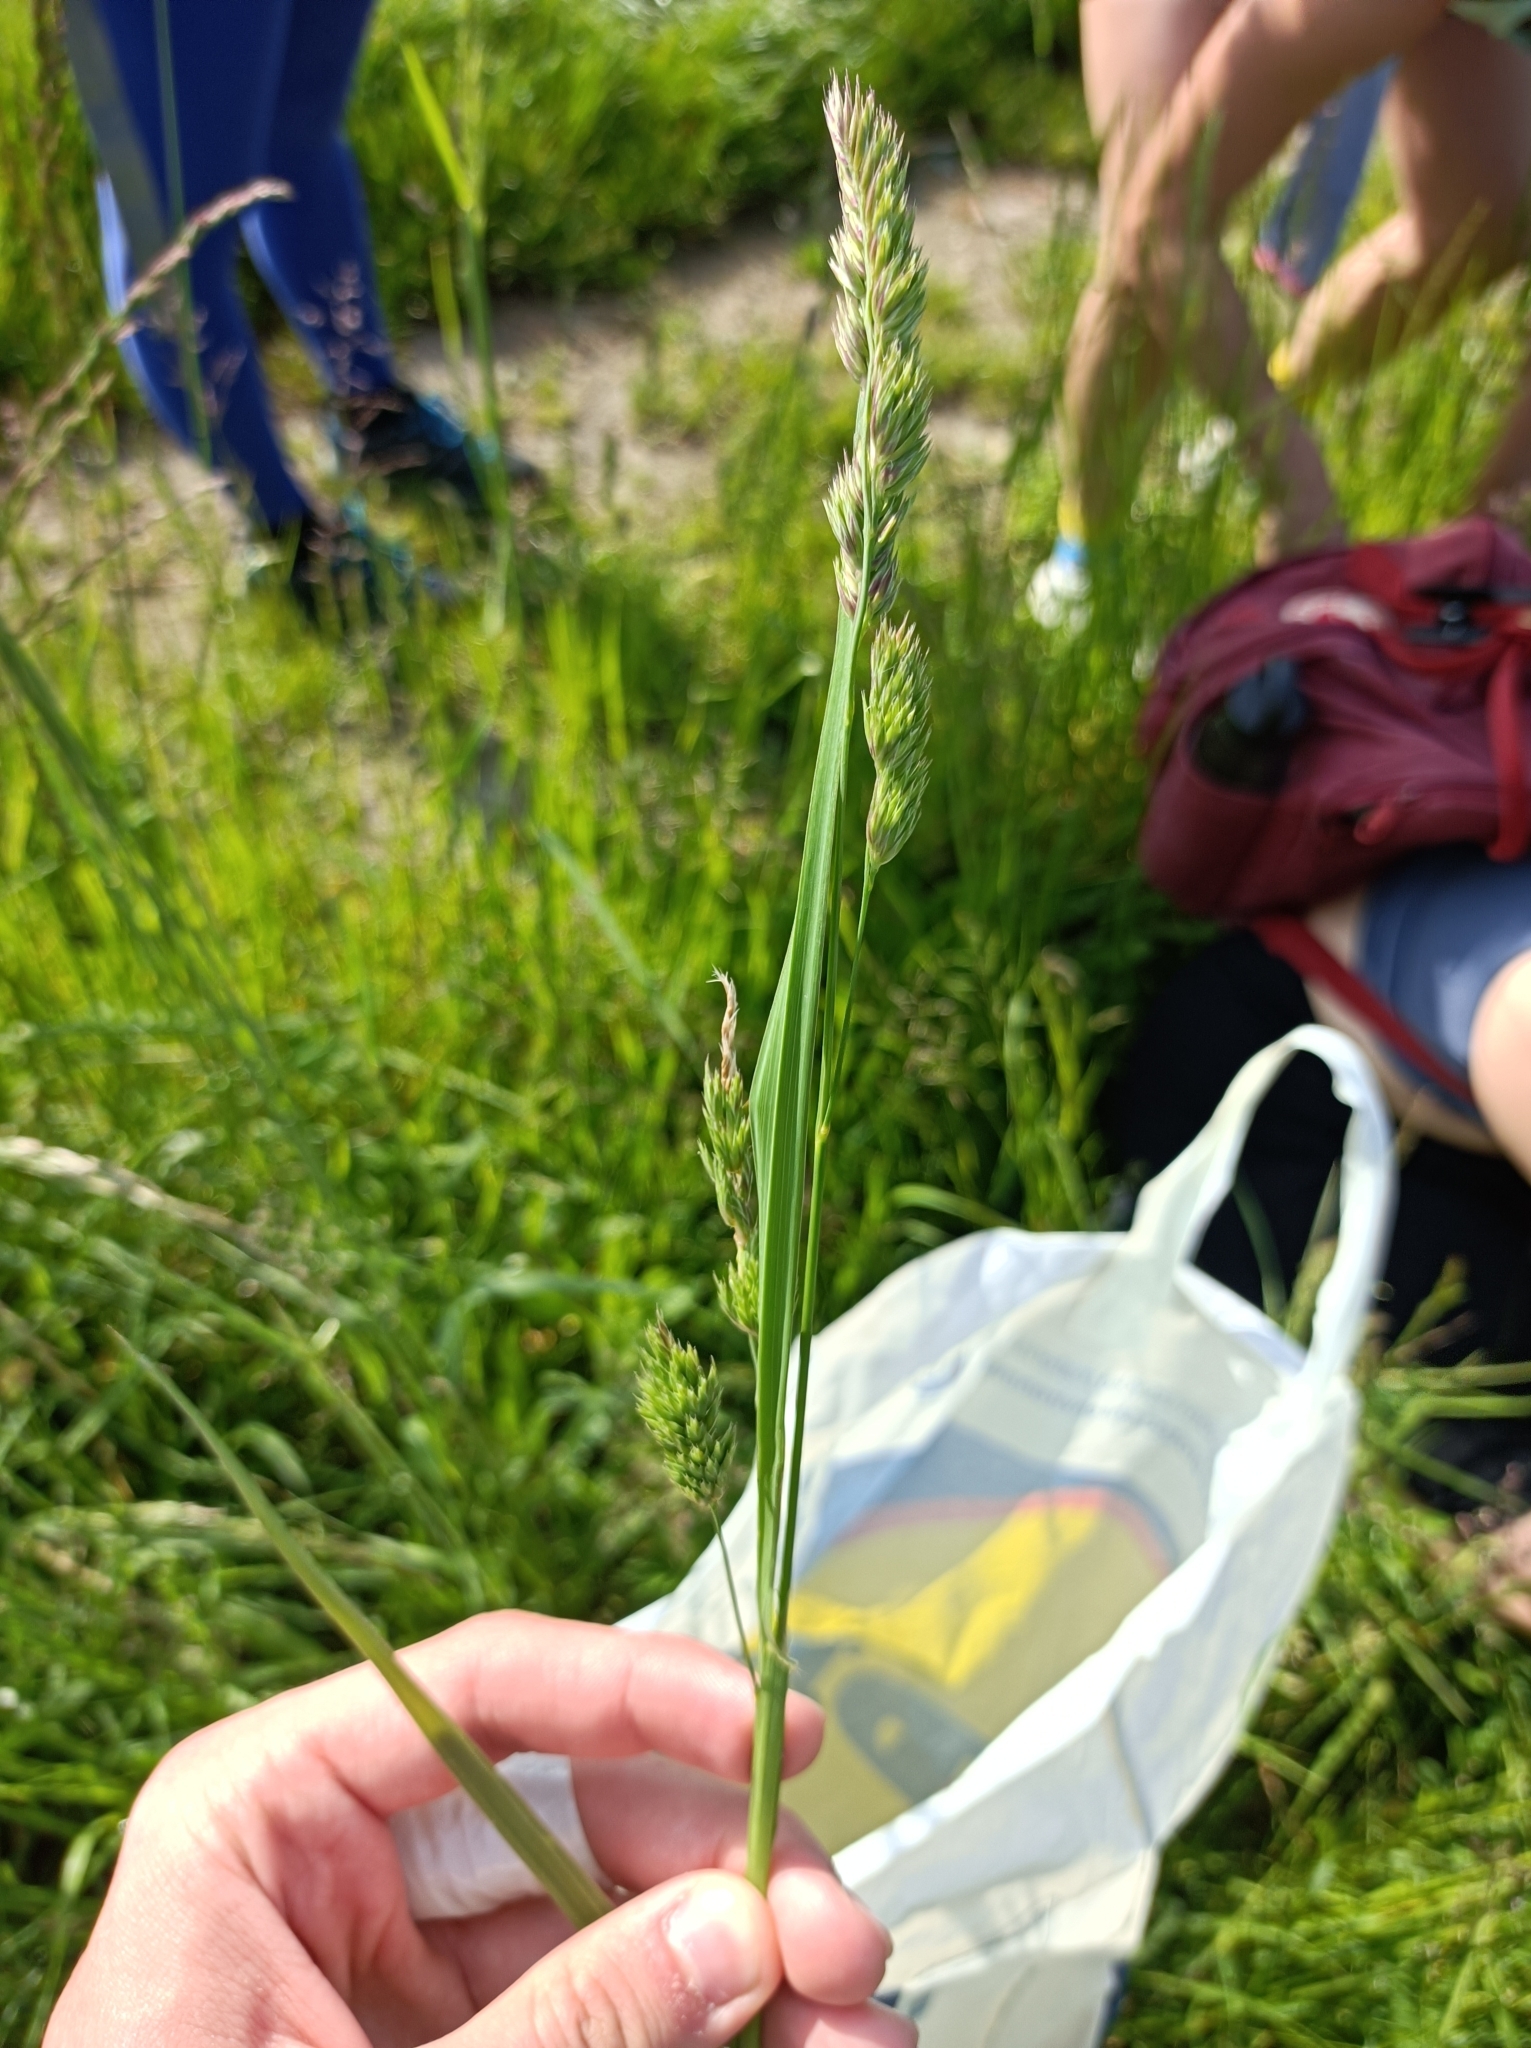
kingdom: Plantae
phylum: Tracheophyta
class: Liliopsida
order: Poales
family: Poaceae
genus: Dactylis
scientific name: Dactylis glomerata
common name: Orchardgrass
